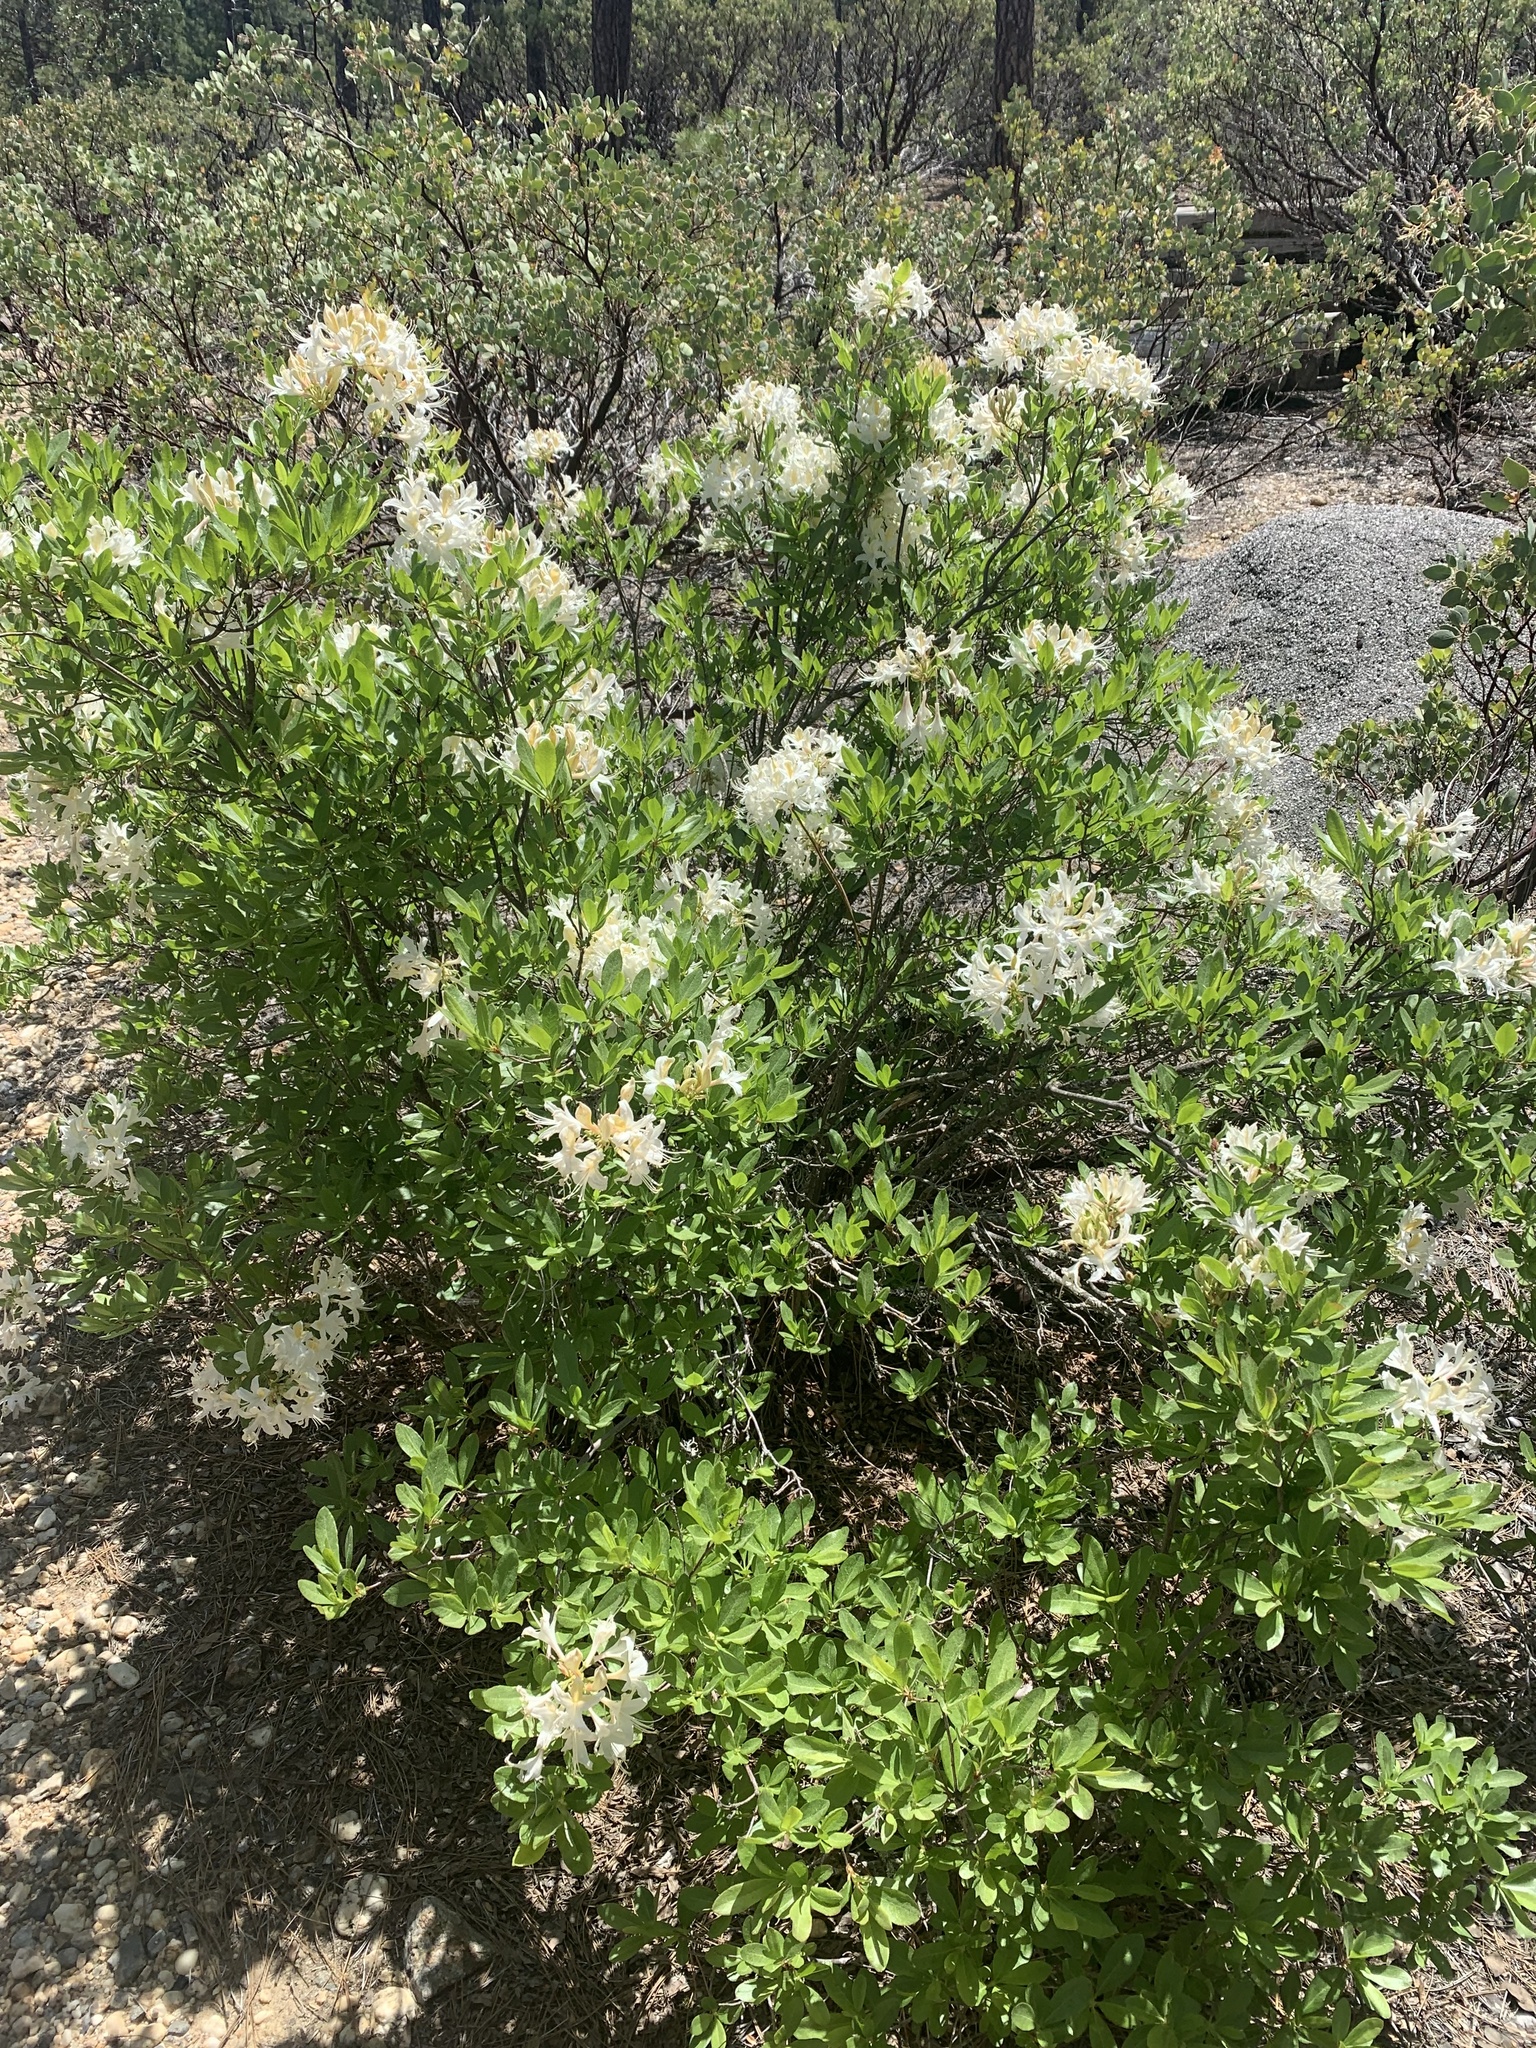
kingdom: Plantae
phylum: Tracheophyta
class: Magnoliopsida
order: Ericales
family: Ericaceae
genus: Rhododendron
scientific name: Rhododendron occidentale
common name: Western azalea
